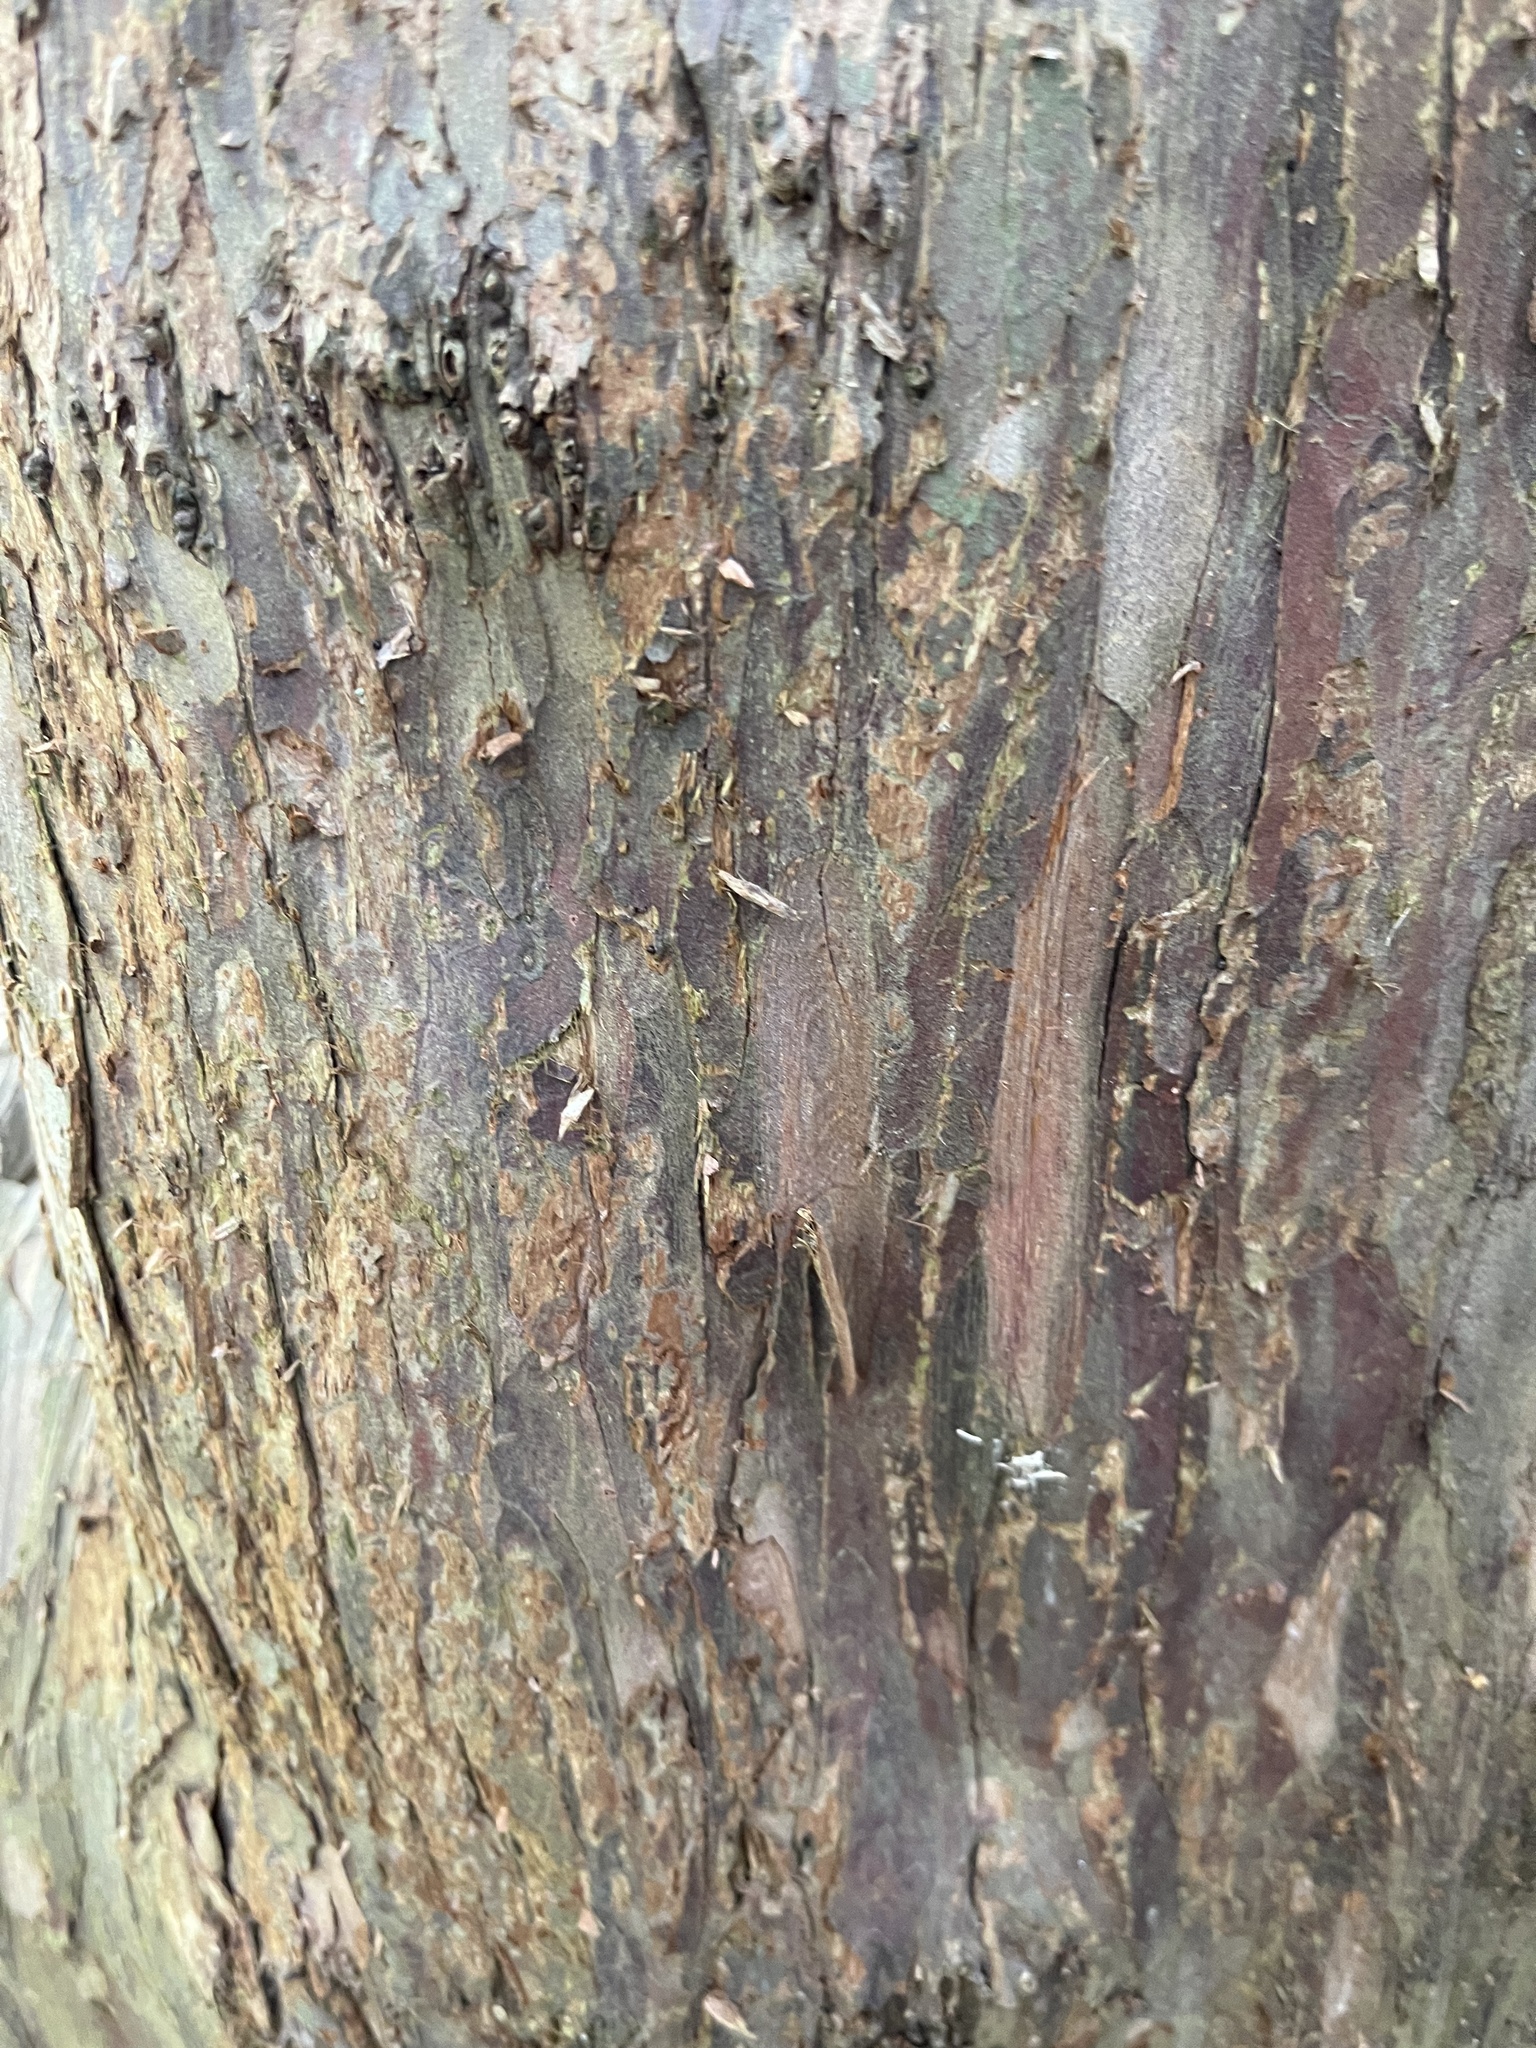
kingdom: Plantae
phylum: Tracheophyta
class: Pinopsida
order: Pinales
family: Taxaceae
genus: Taxus
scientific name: Taxus baccata
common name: Yew
